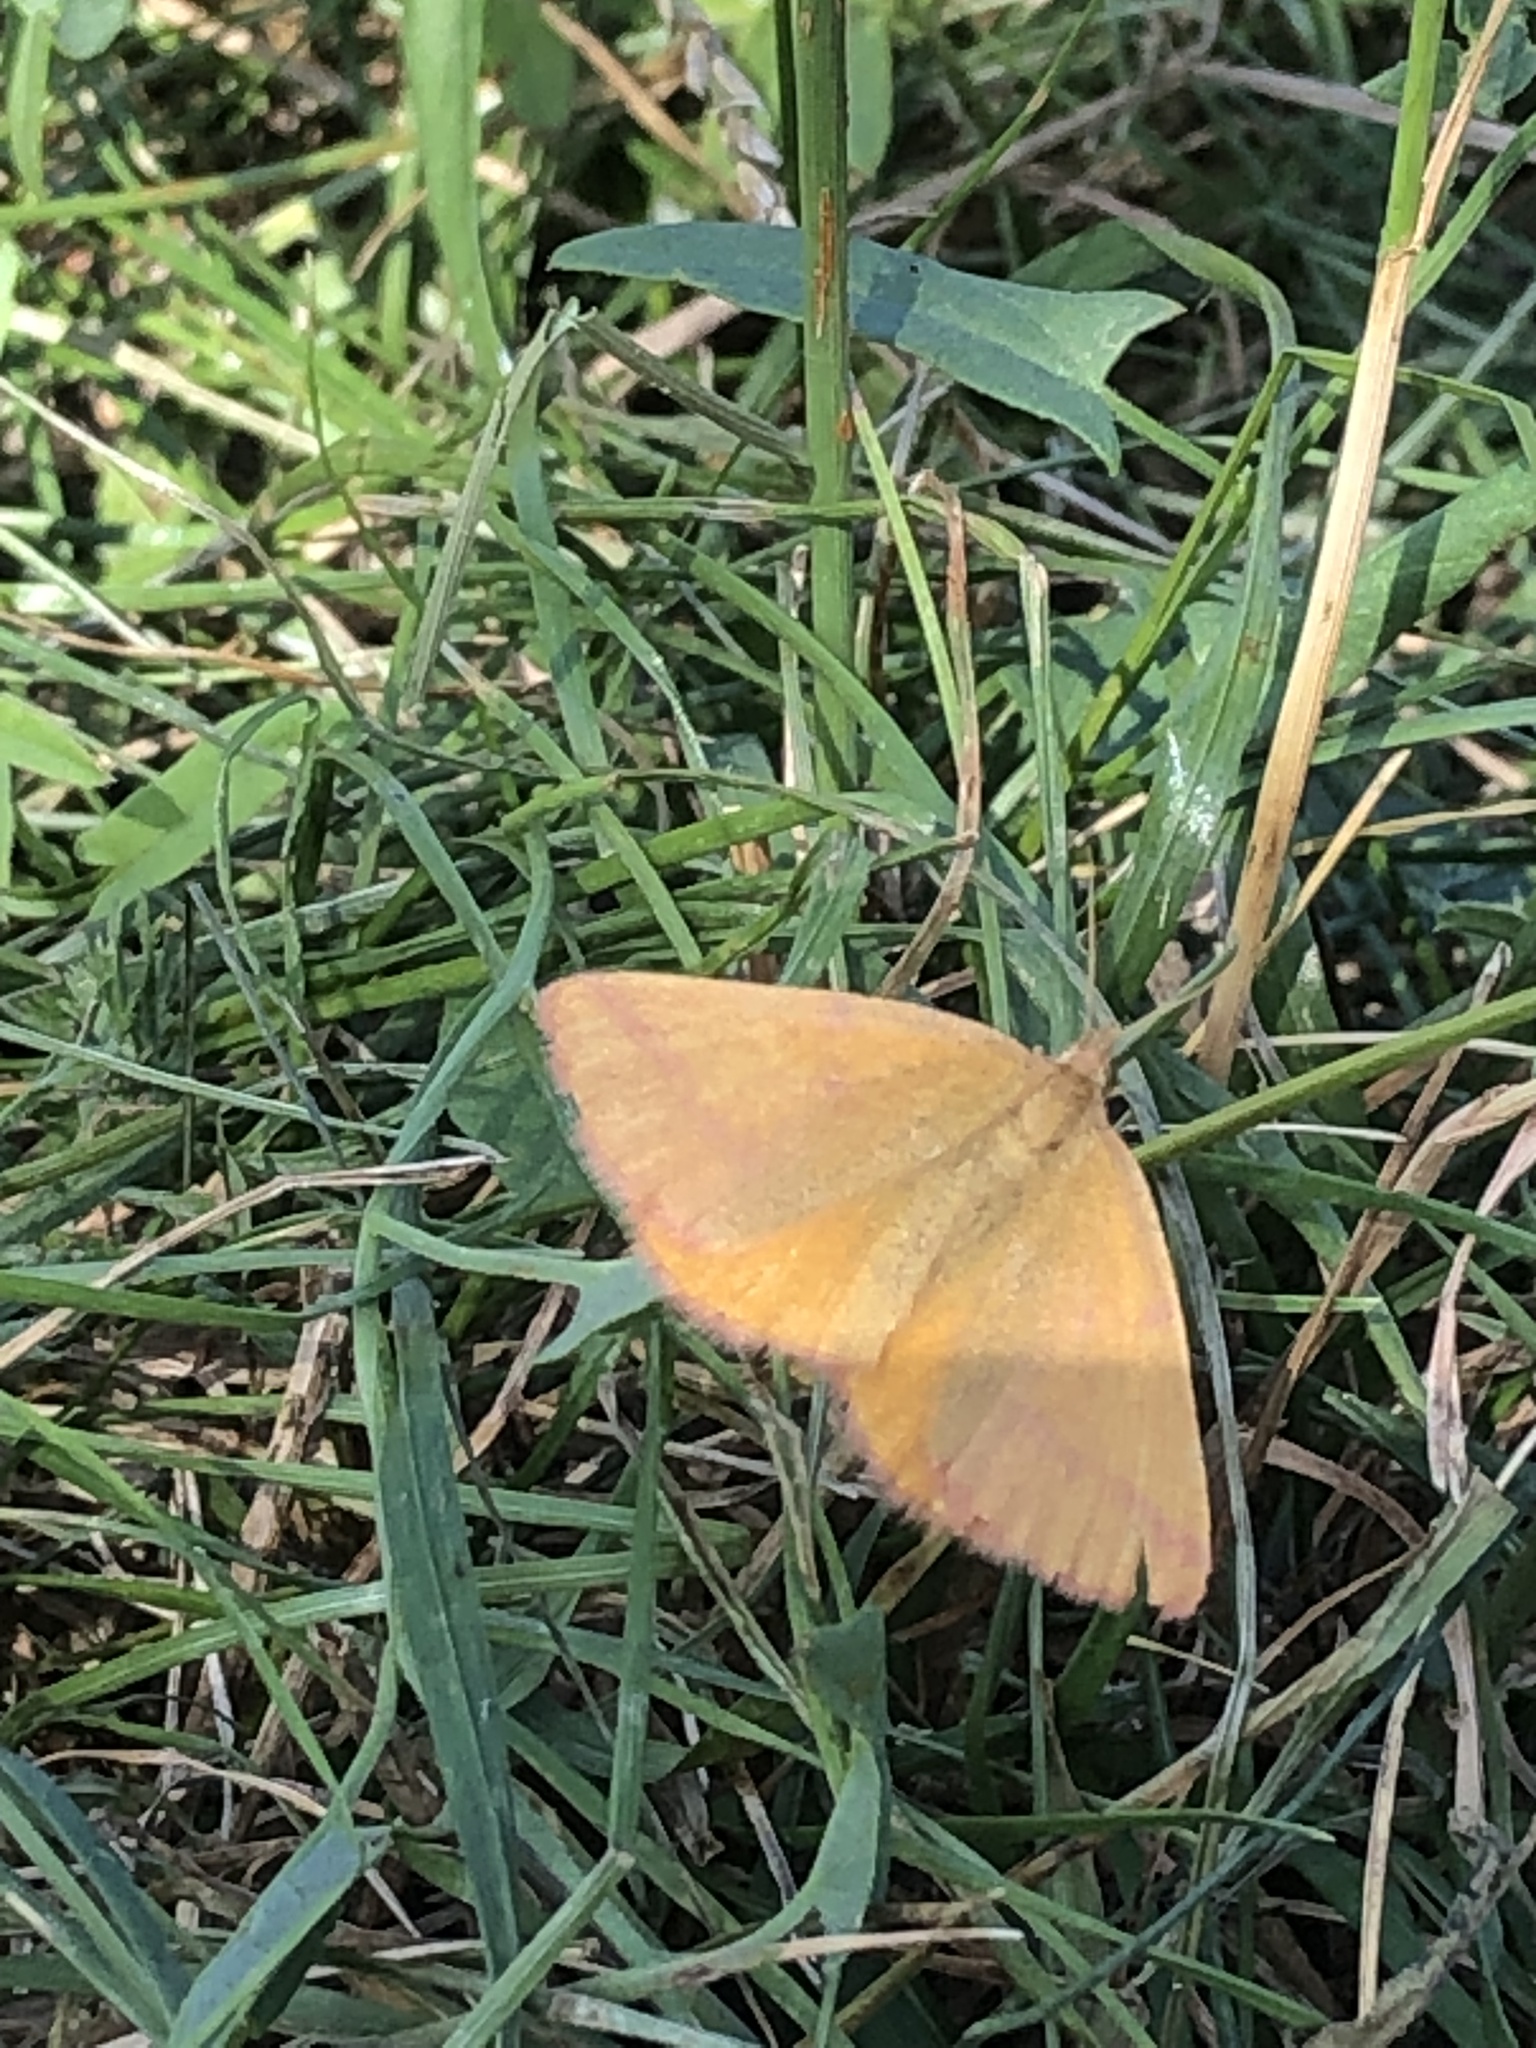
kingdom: Animalia
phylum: Arthropoda
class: Insecta
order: Lepidoptera
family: Geometridae
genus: Lythria
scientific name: Lythria purpuraria
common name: Purple-barred yellow
